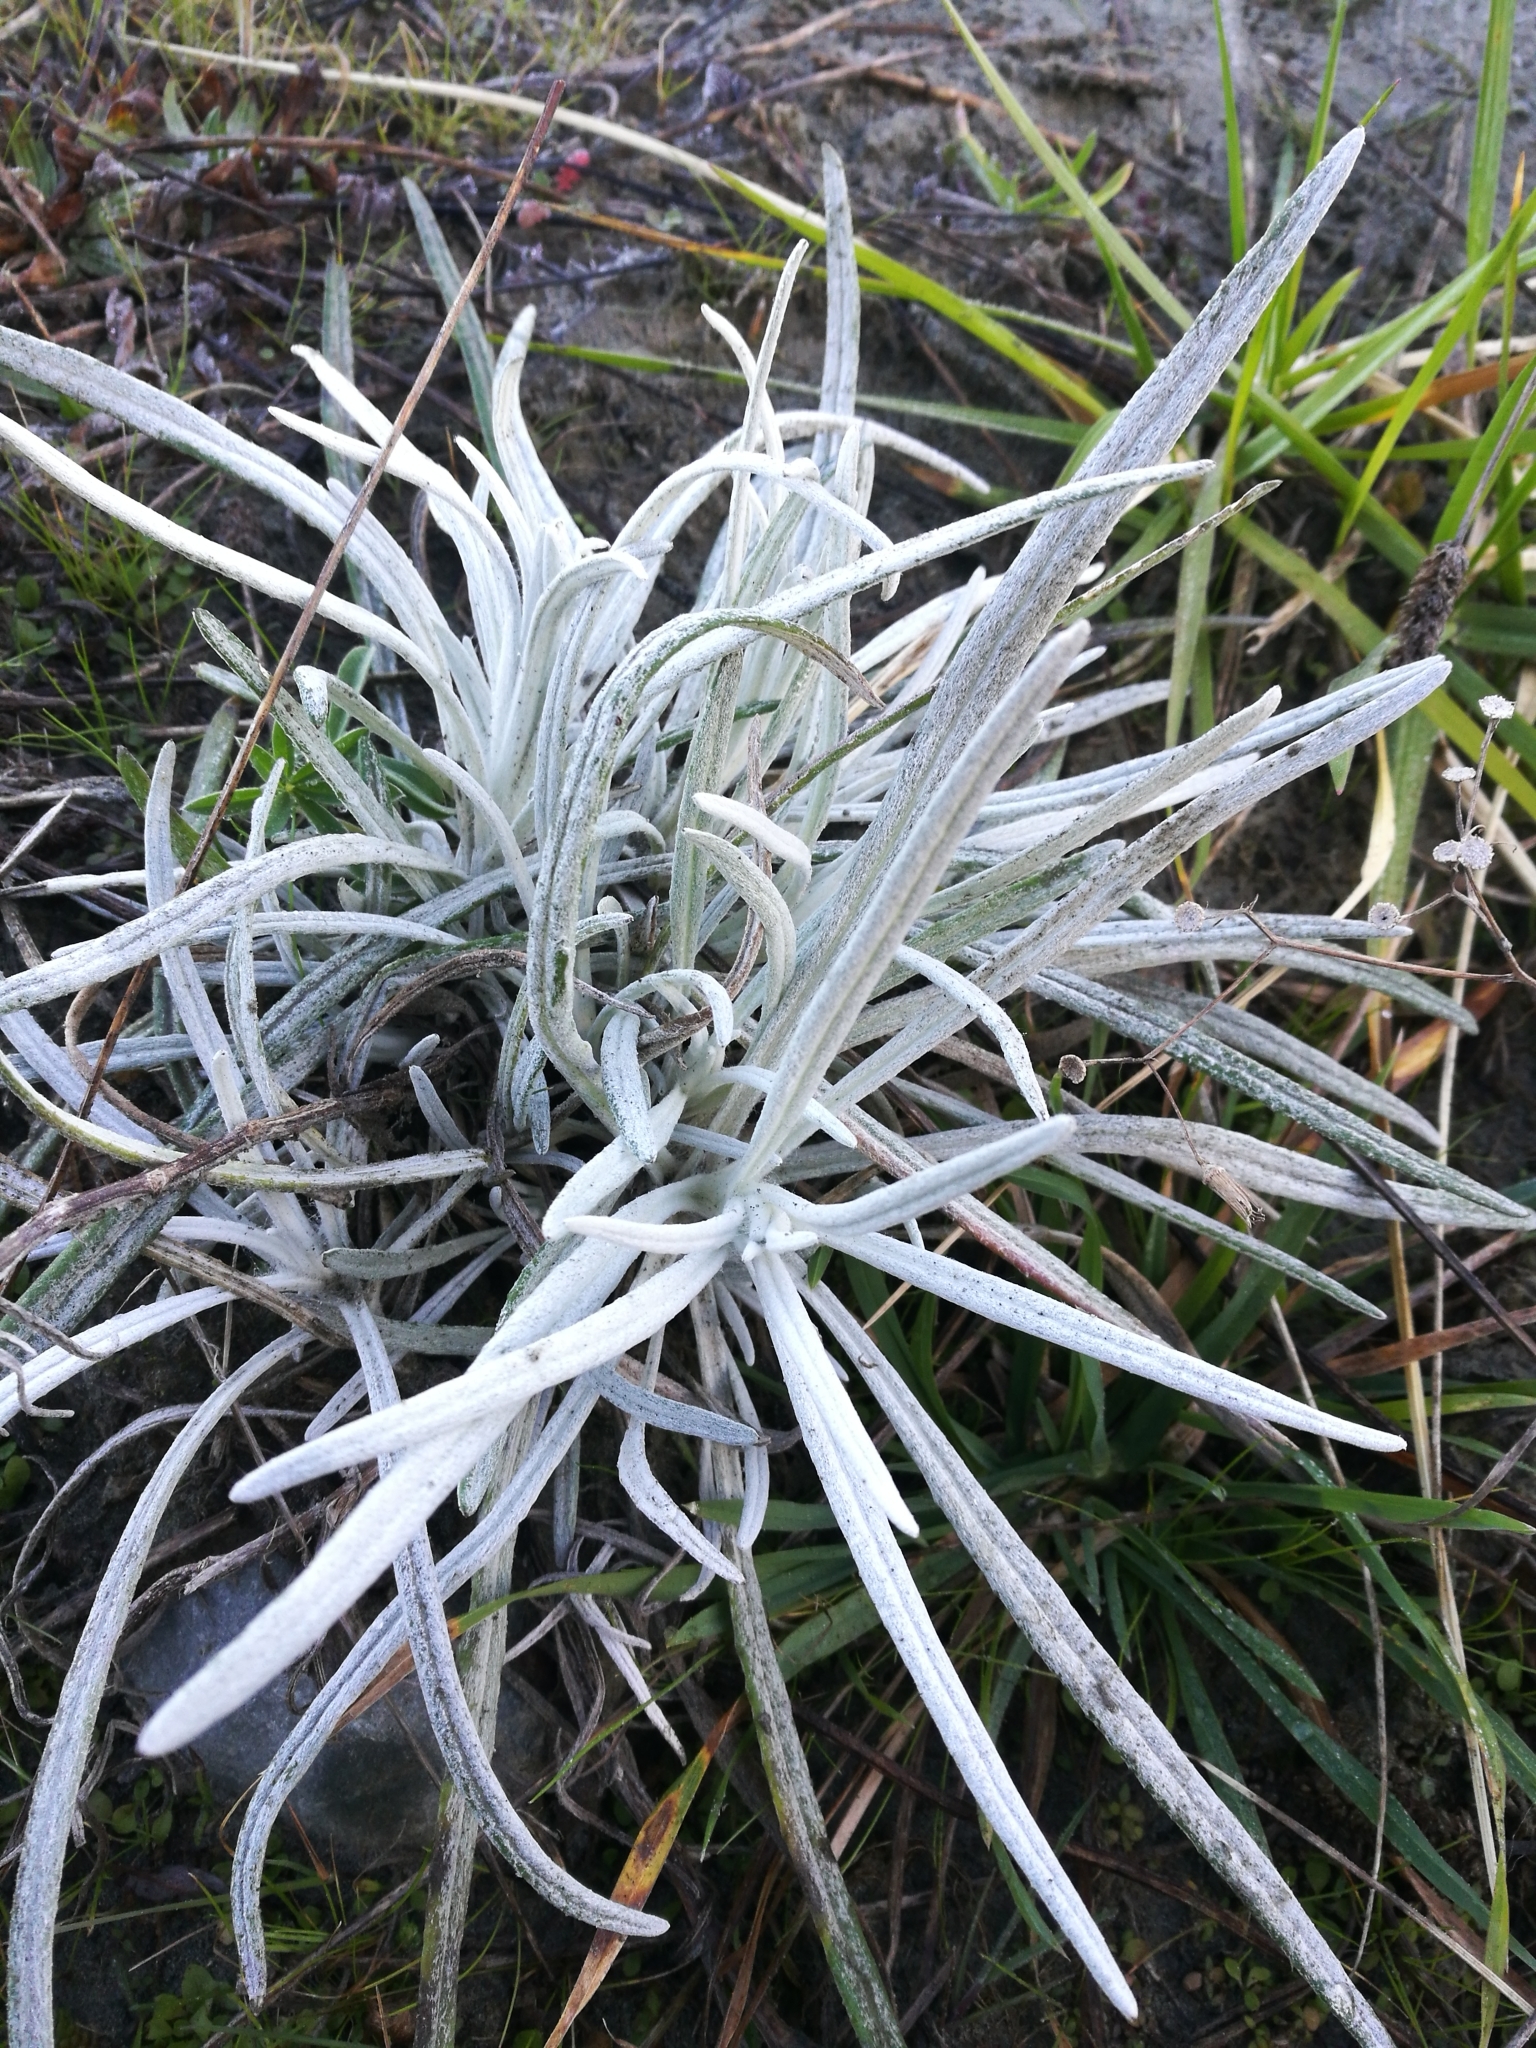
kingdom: Plantae
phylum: Tracheophyta
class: Magnoliopsida
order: Asterales
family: Asteraceae
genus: Senecio
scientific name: Senecio quadridentatus
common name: Cotton fireweed
